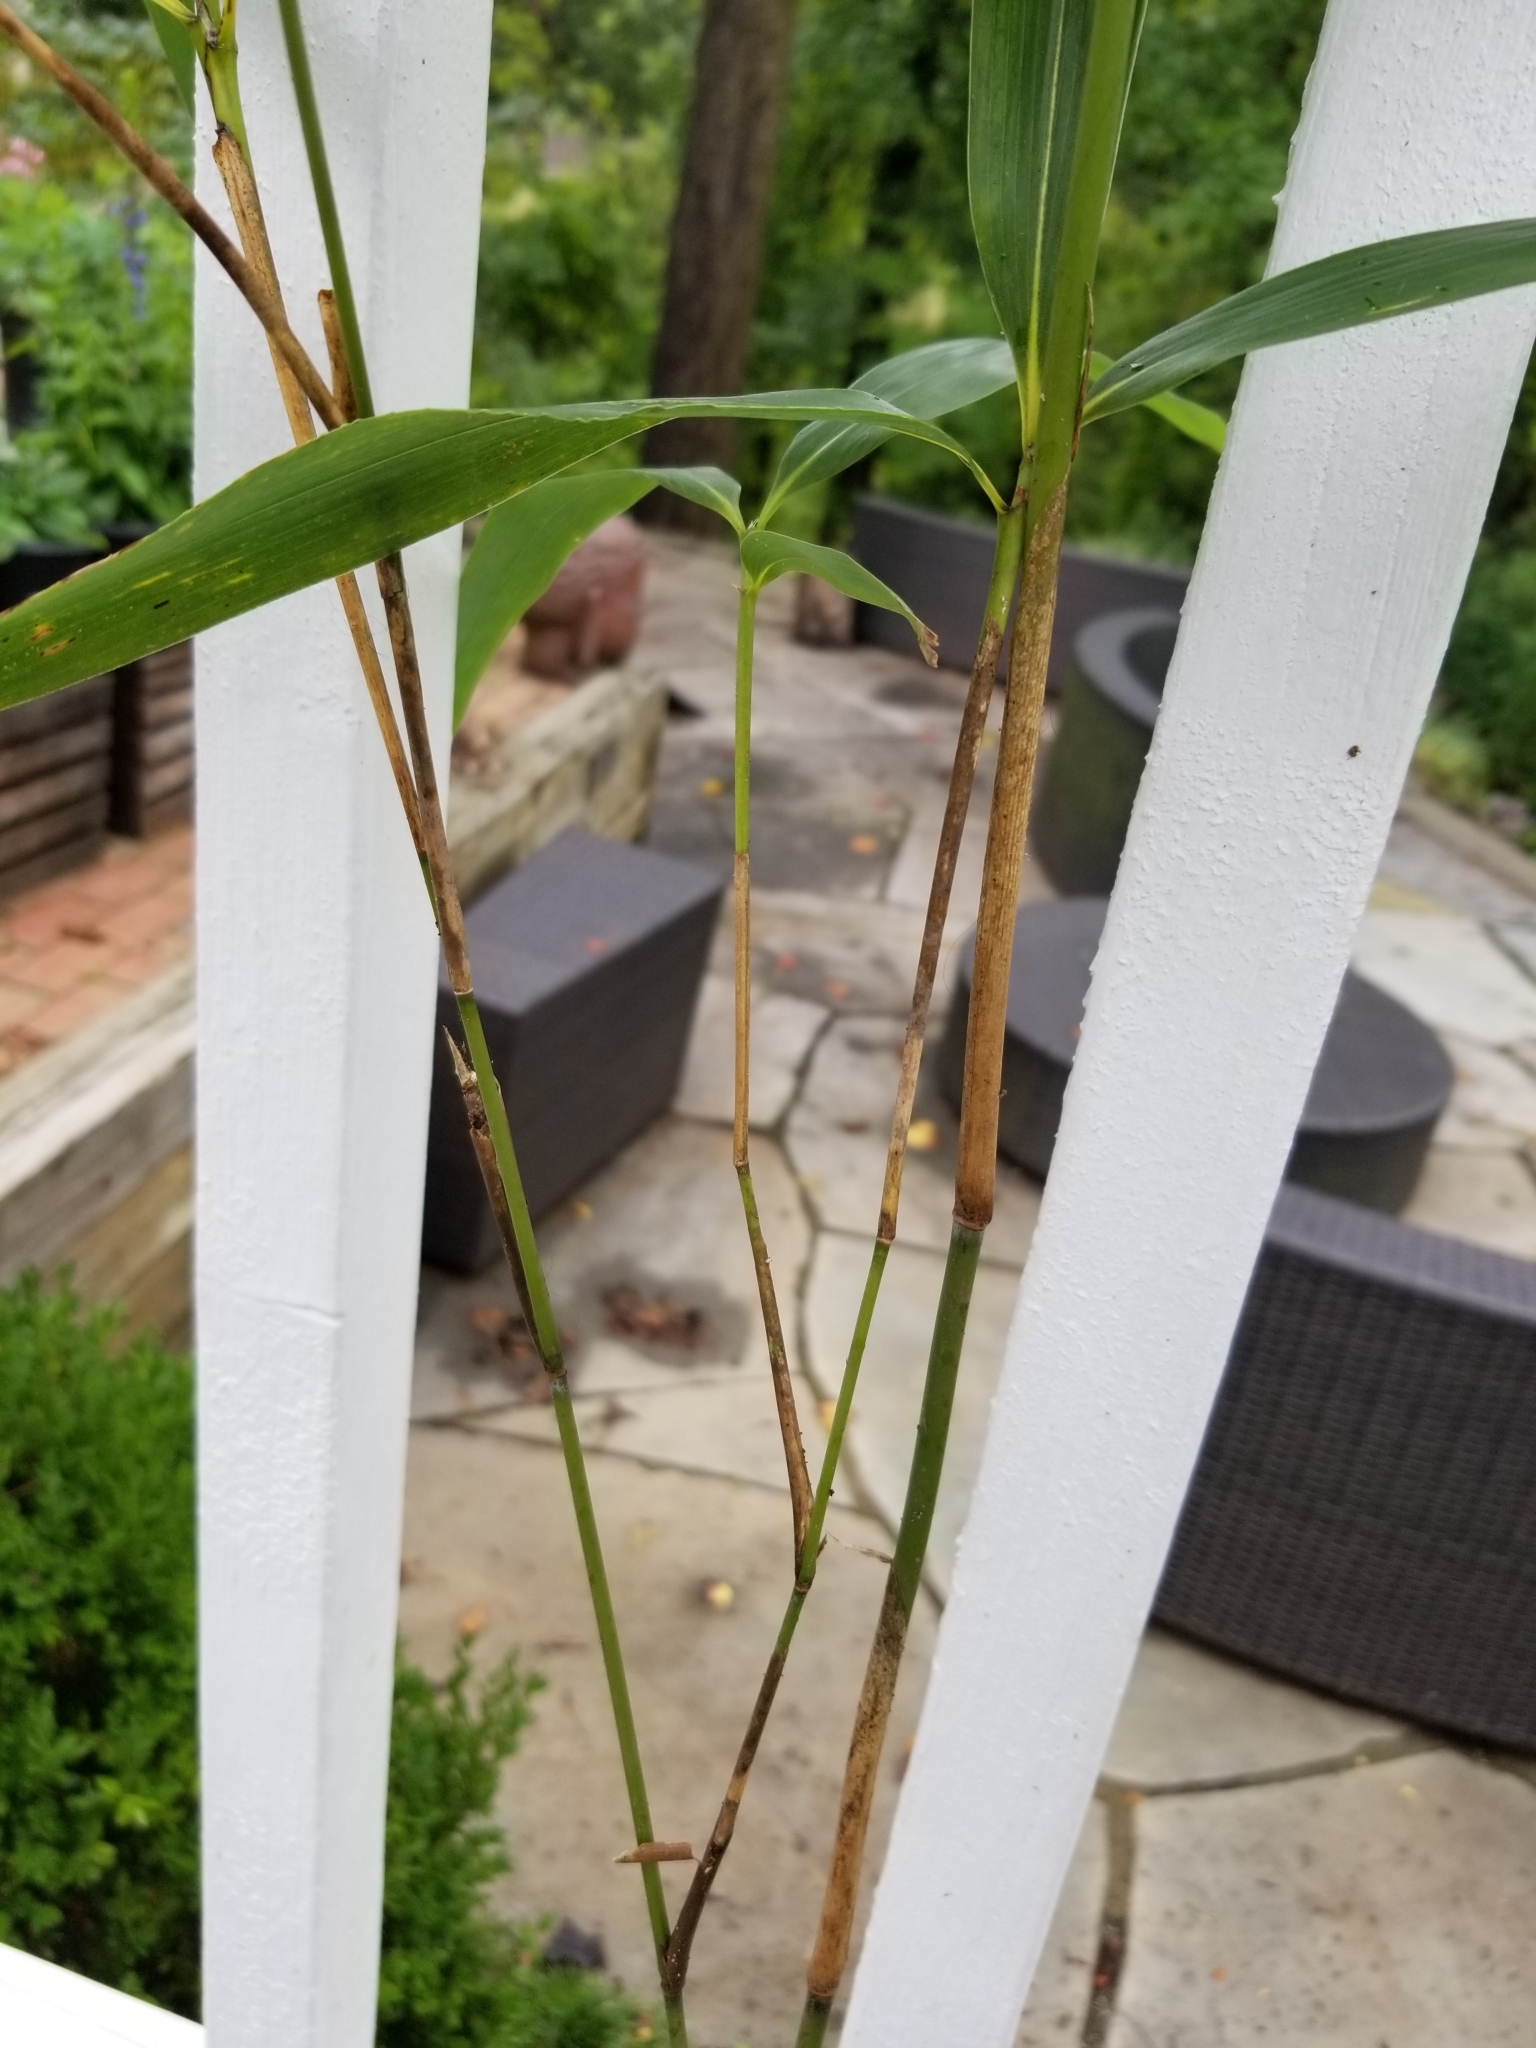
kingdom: Plantae
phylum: Tracheophyta
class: Liliopsida
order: Poales
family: Poaceae
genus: Pseudosasa
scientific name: Pseudosasa japonica
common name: Arrow bamboo
